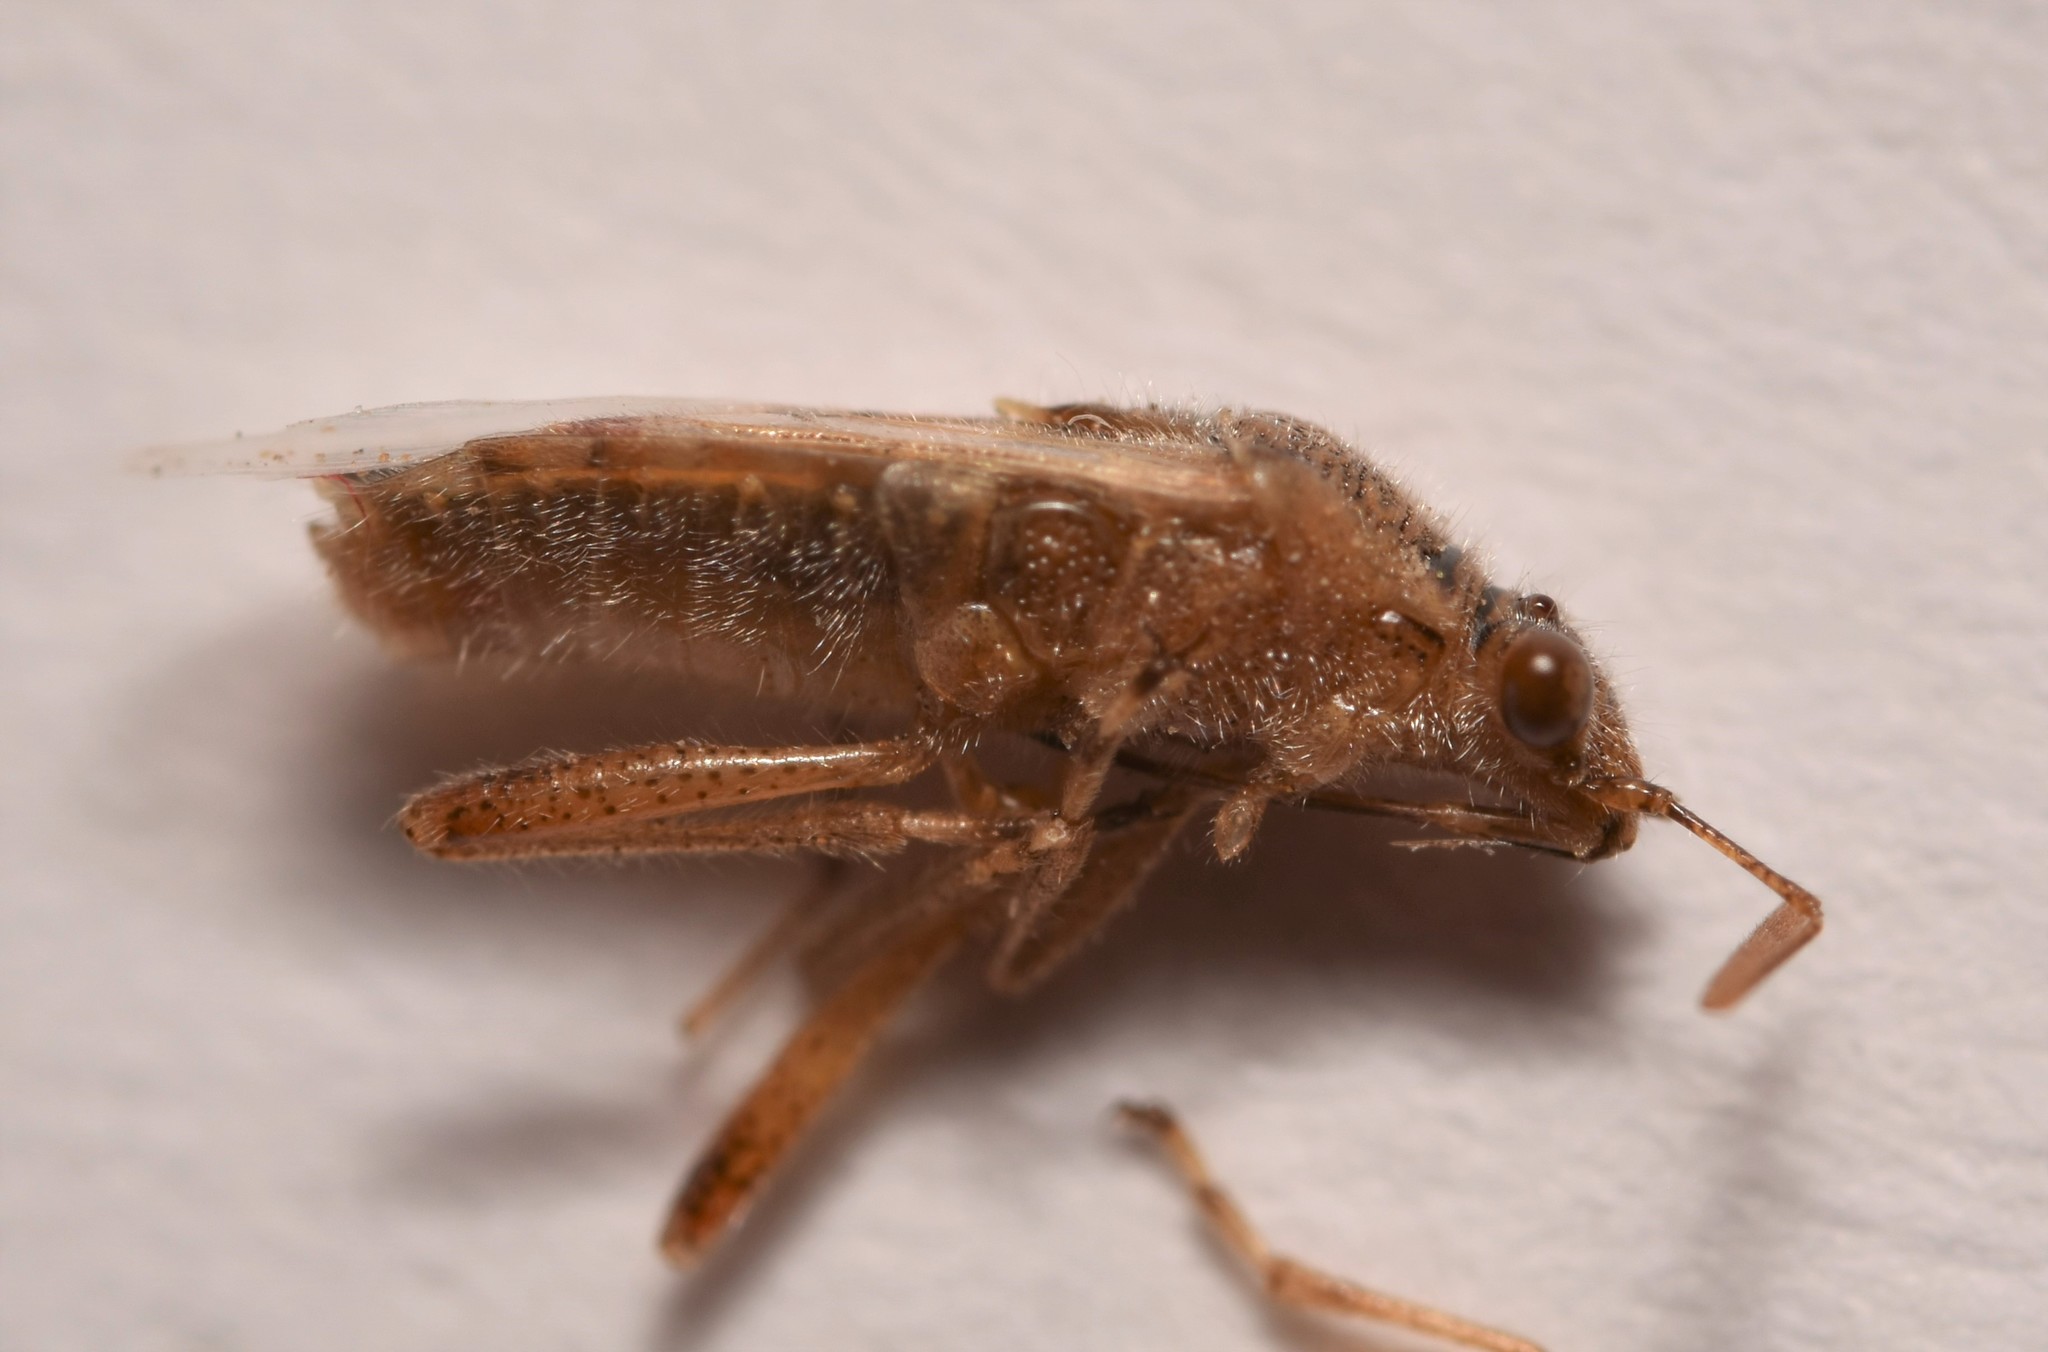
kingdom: Animalia
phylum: Arthropoda
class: Insecta
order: Hemiptera
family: Rhopalidae
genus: Liorhyssus
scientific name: Liorhyssus hyalinus
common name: Scentless plant bug
